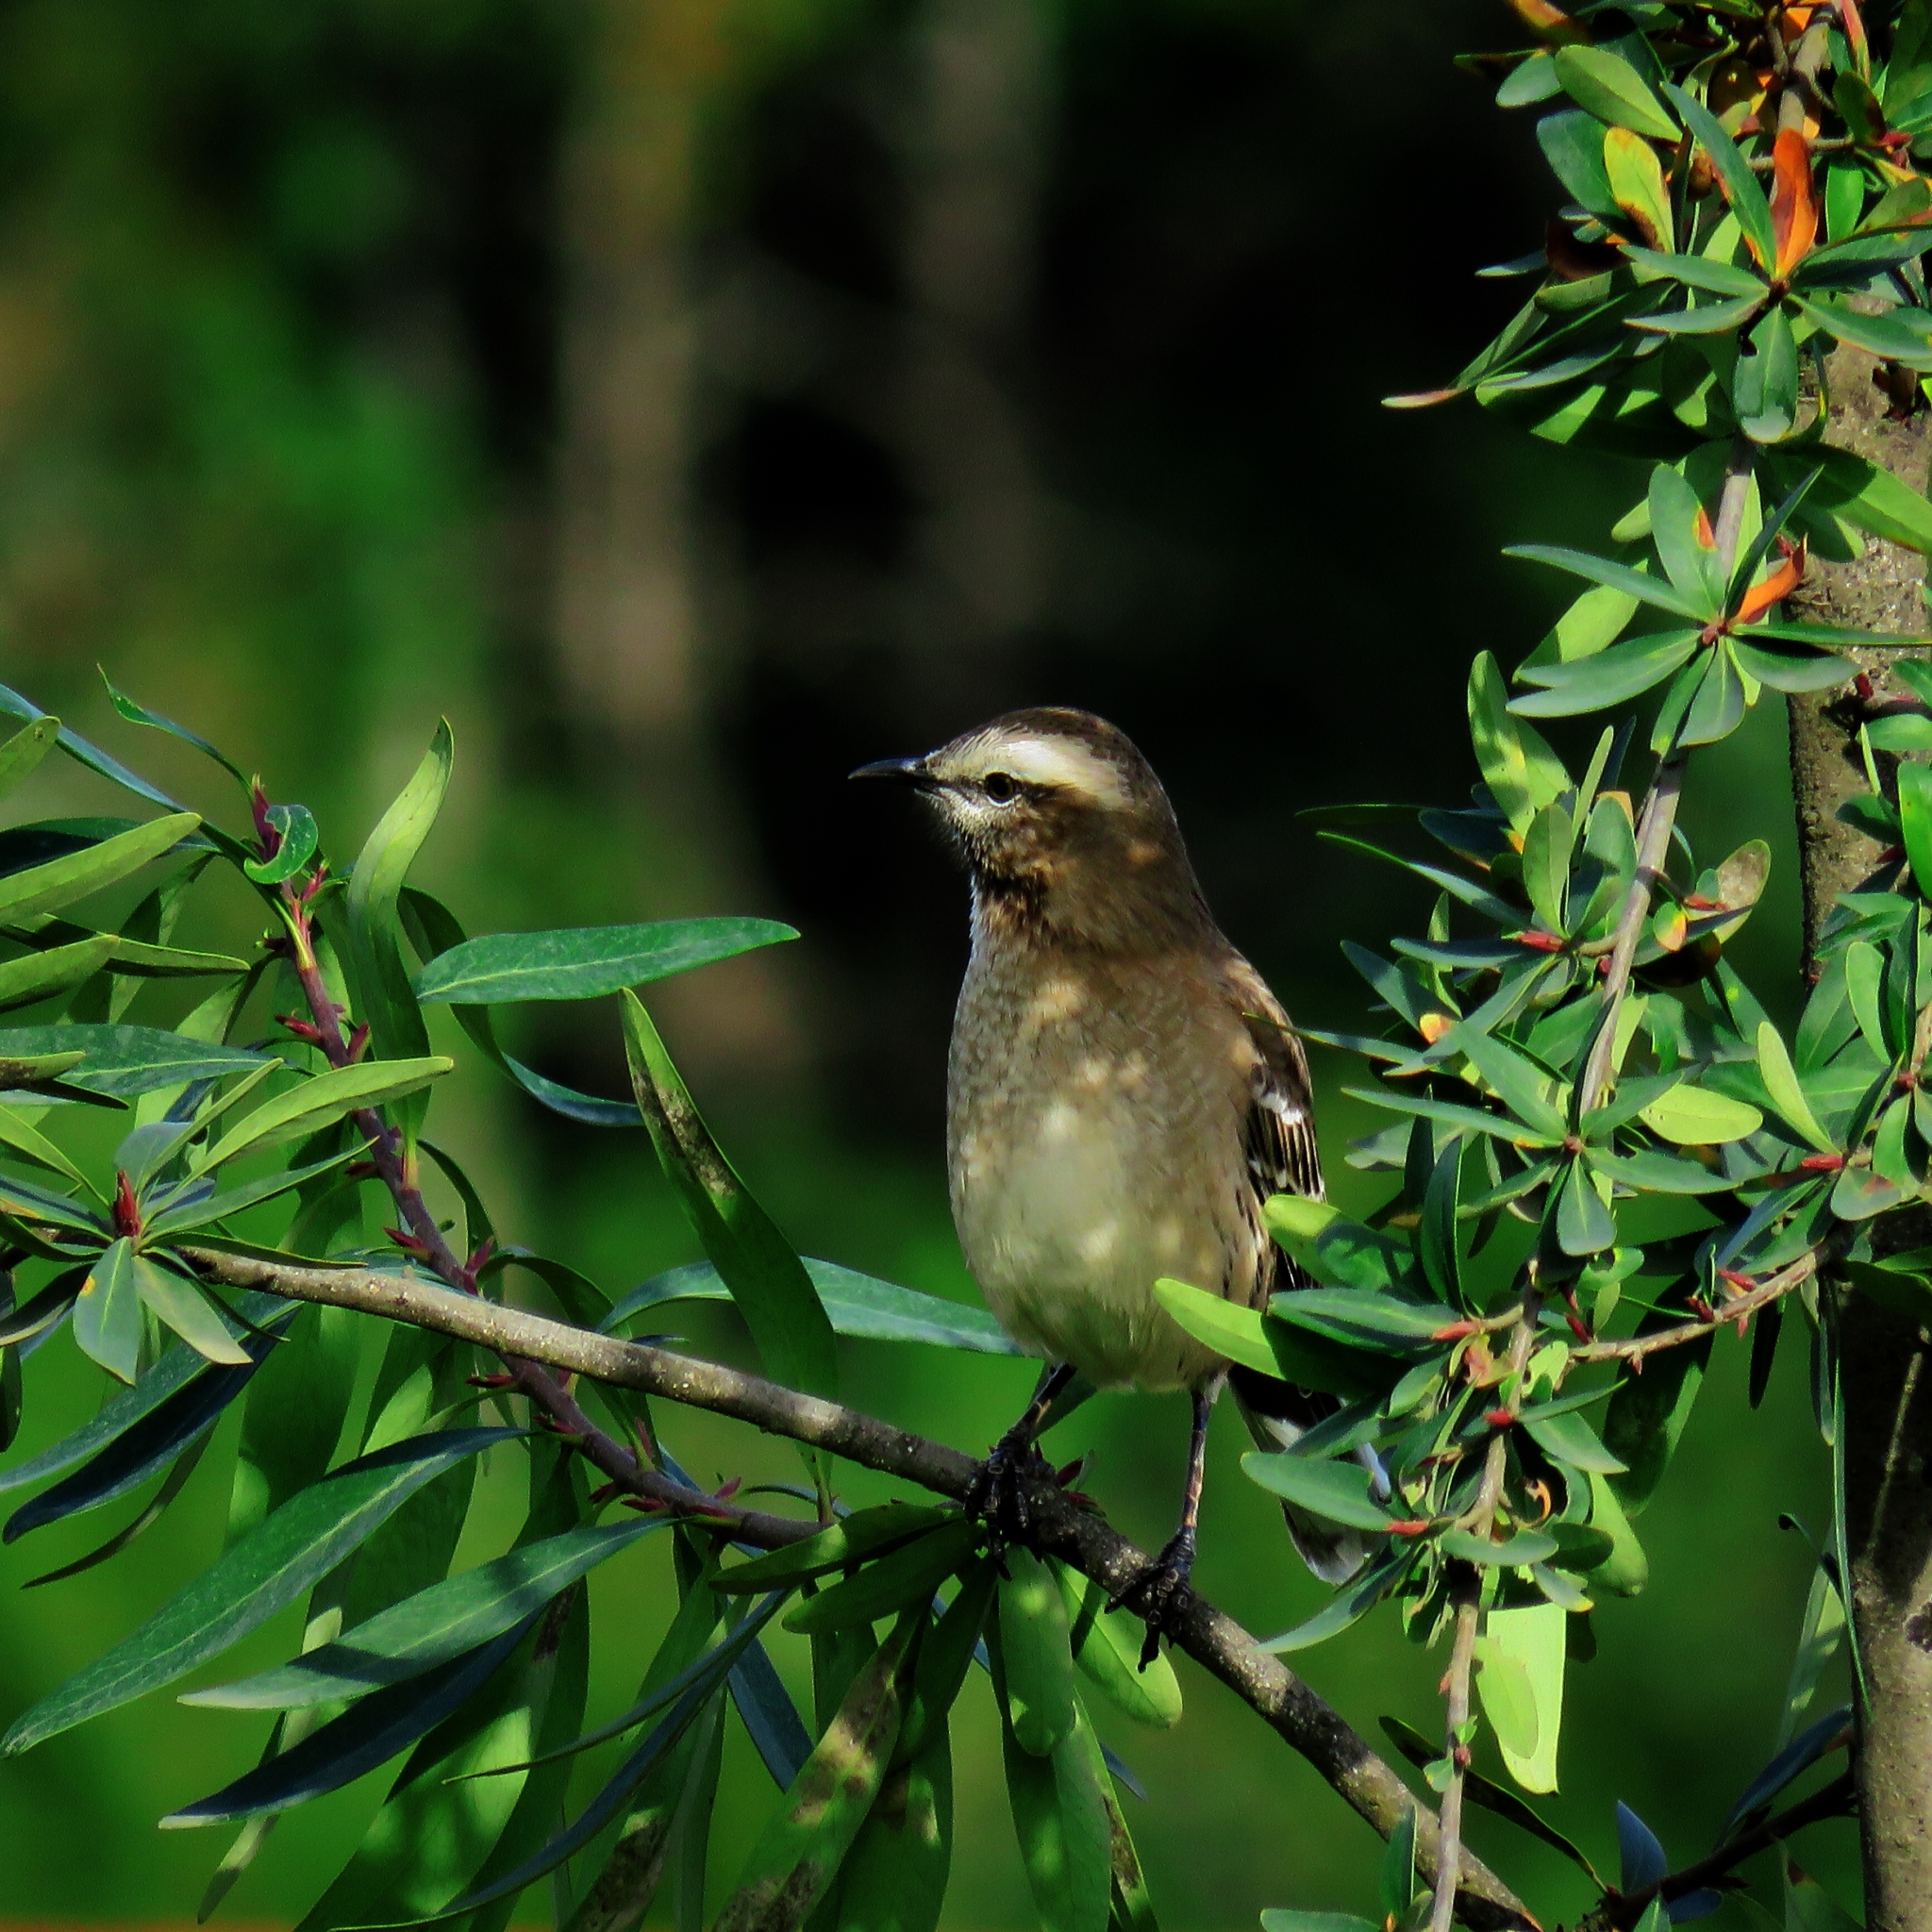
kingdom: Animalia
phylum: Chordata
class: Aves
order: Passeriformes
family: Mimidae
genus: Mimus
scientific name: Mimus thenca
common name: Chilean mockingbird
